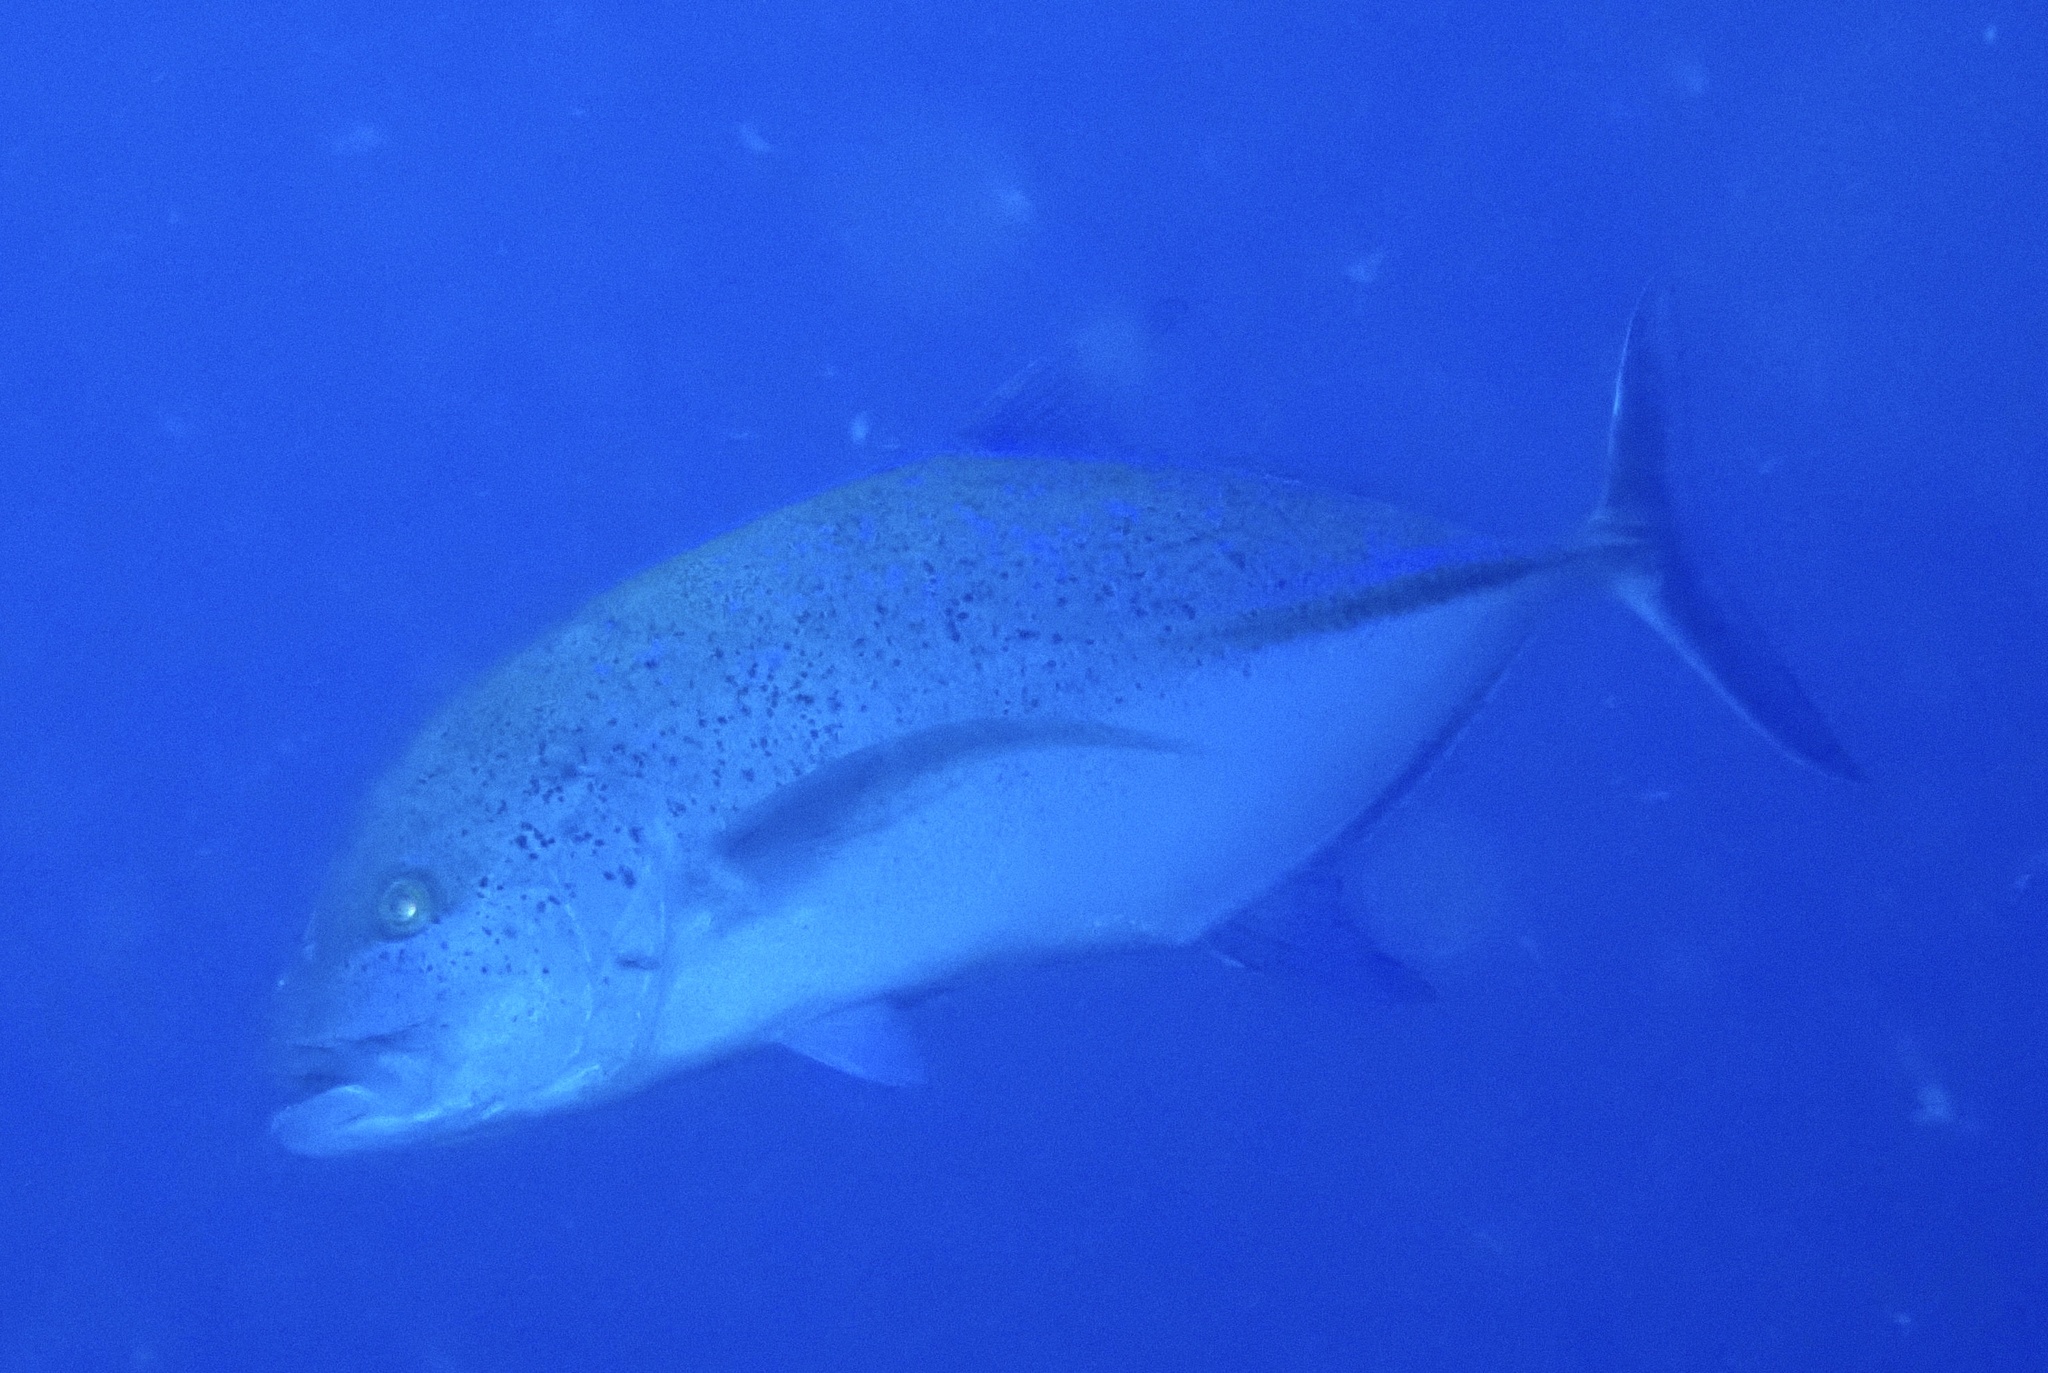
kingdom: Animalia
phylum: Chordata
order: Perciformes
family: Carangidae
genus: Caranx
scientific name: Caranx melampygus
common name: Bluefin trevally
